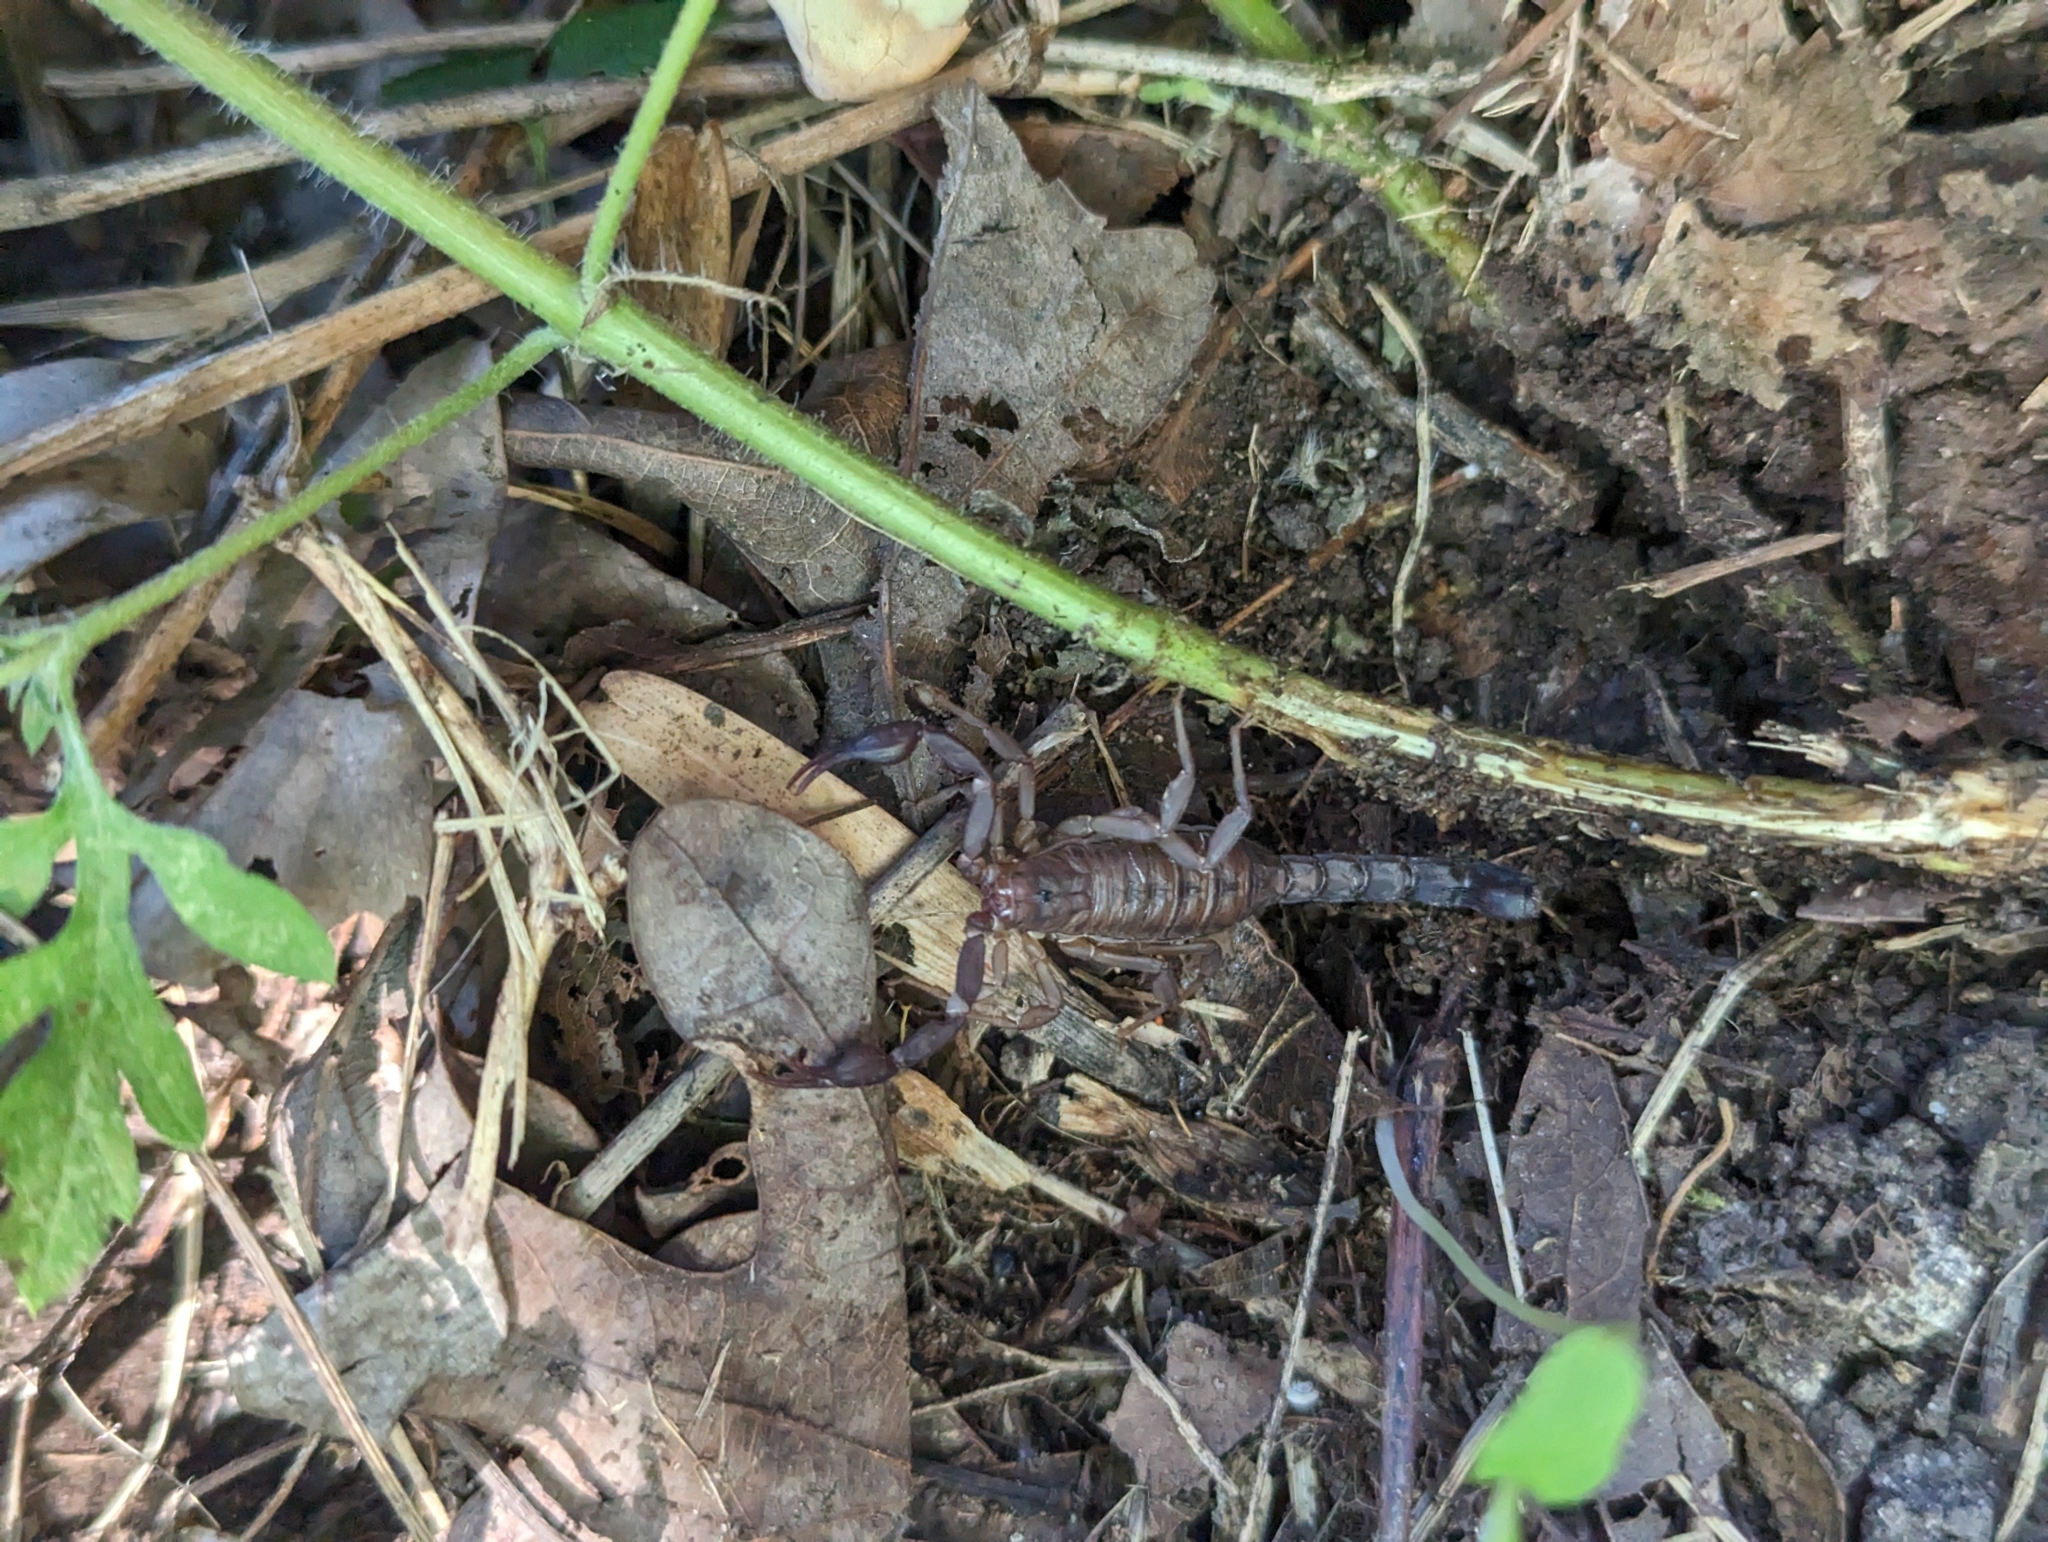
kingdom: Animalia
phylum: Arthropoda
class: Arachnida
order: Scorpiones
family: Vaejovidae
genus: Vaejovis
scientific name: Vaejovis carolinianus
